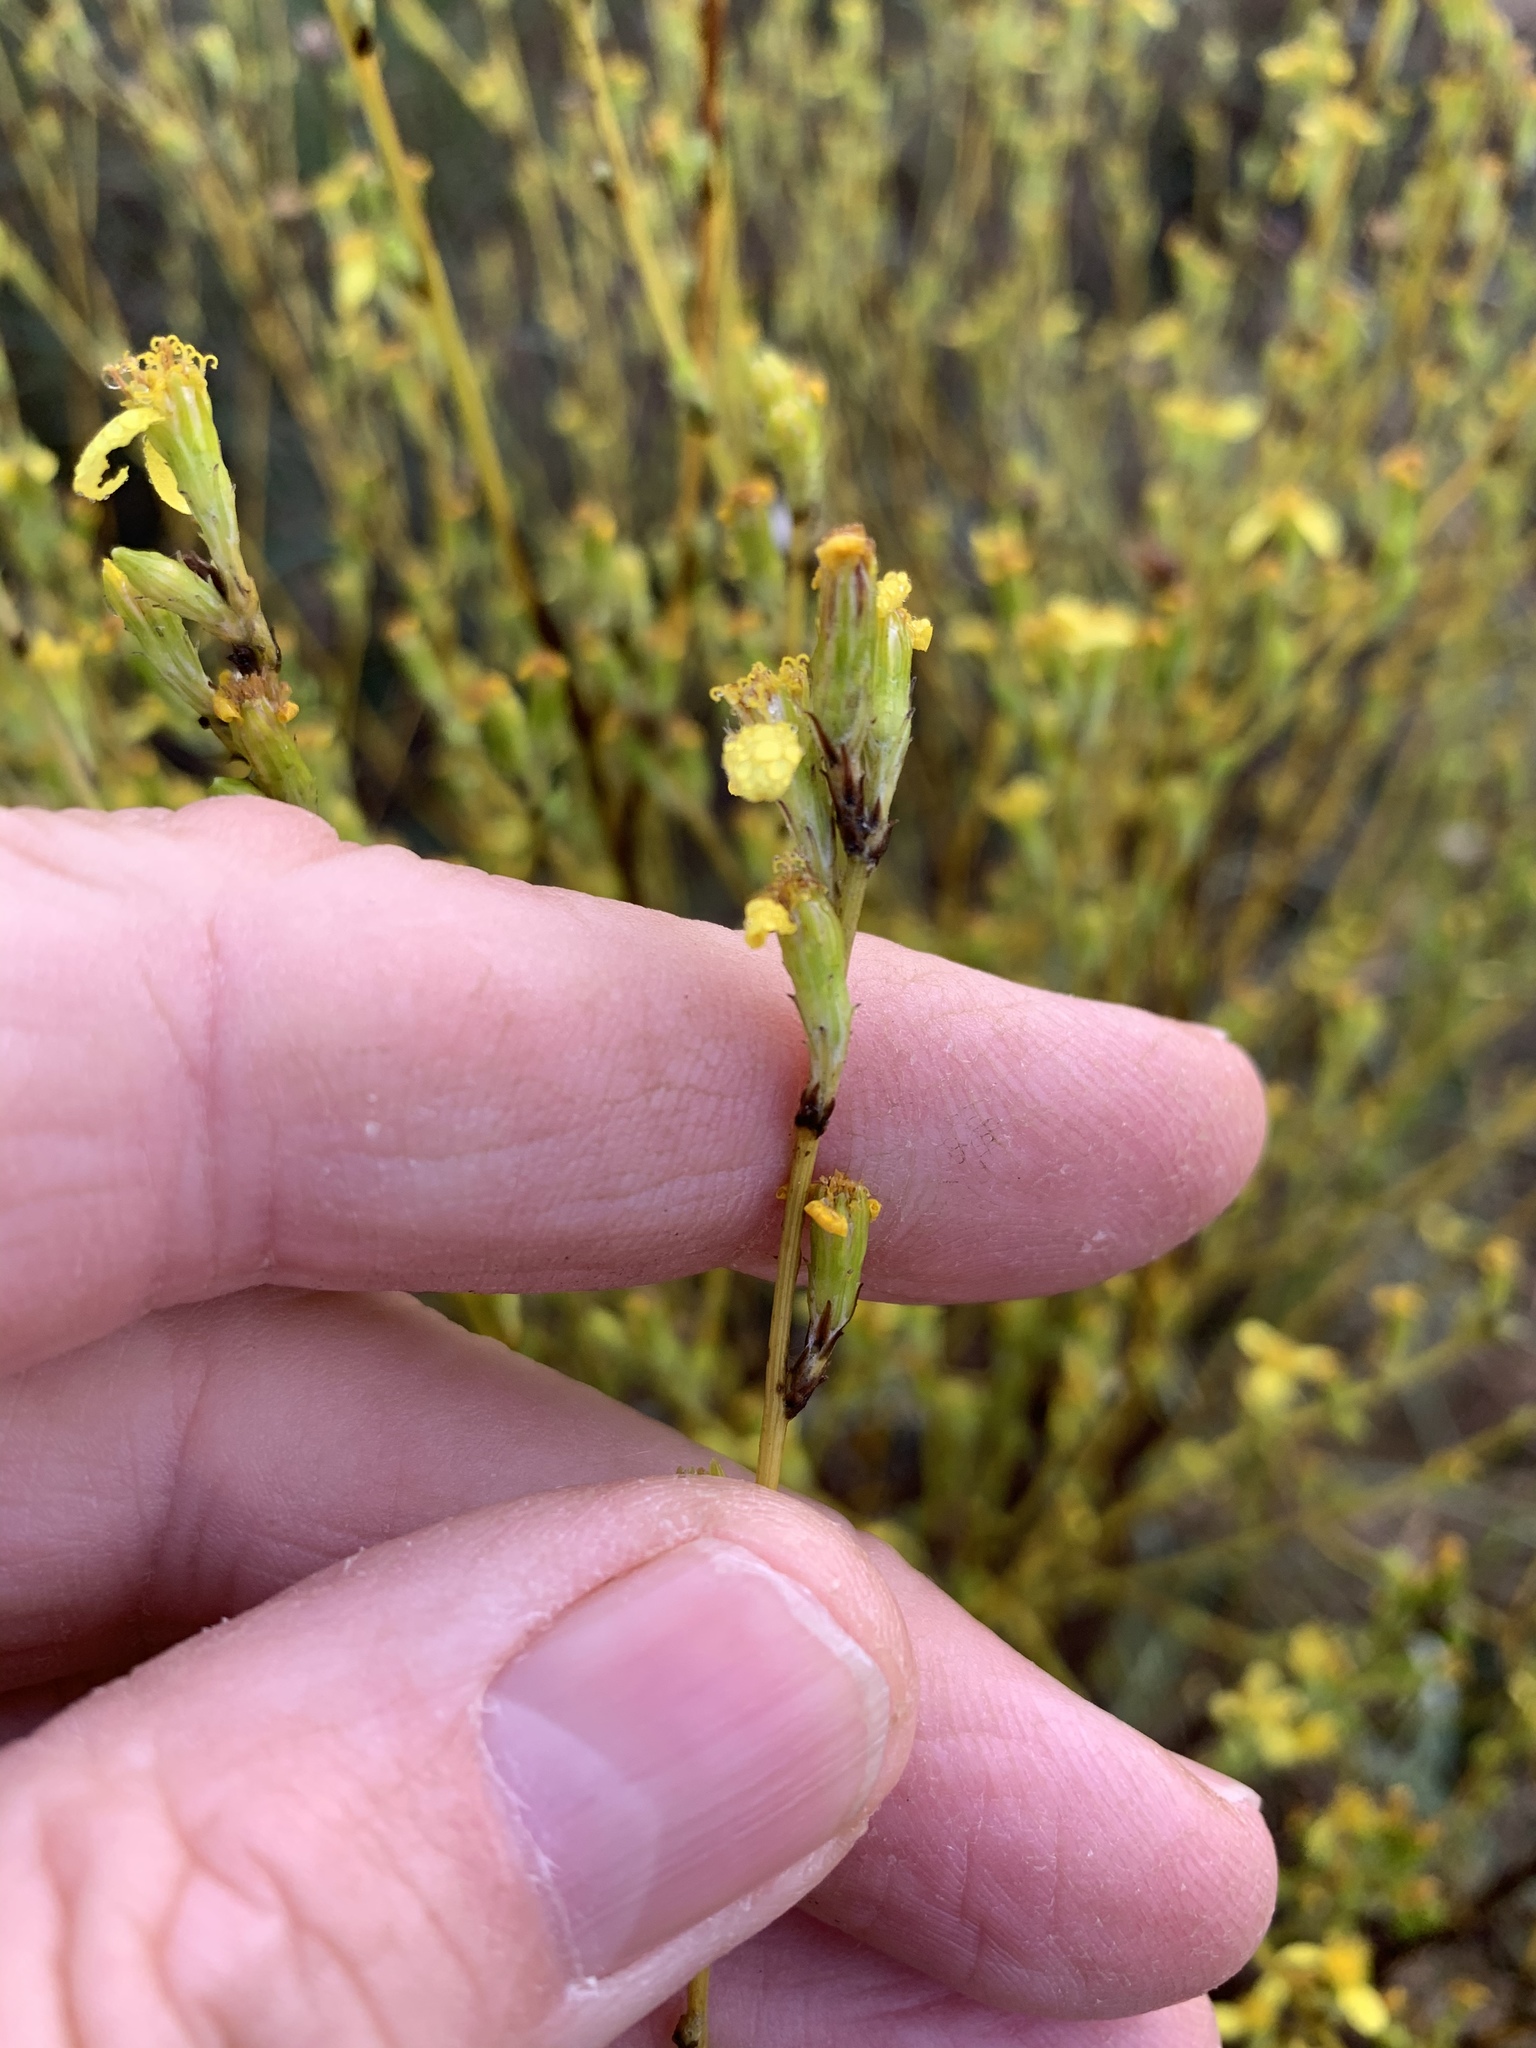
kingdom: Plantae
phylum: Tracheophyta
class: Magnoliopsida
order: Asterales
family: Asteraceae
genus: Senecio
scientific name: Senecio pubigerus
